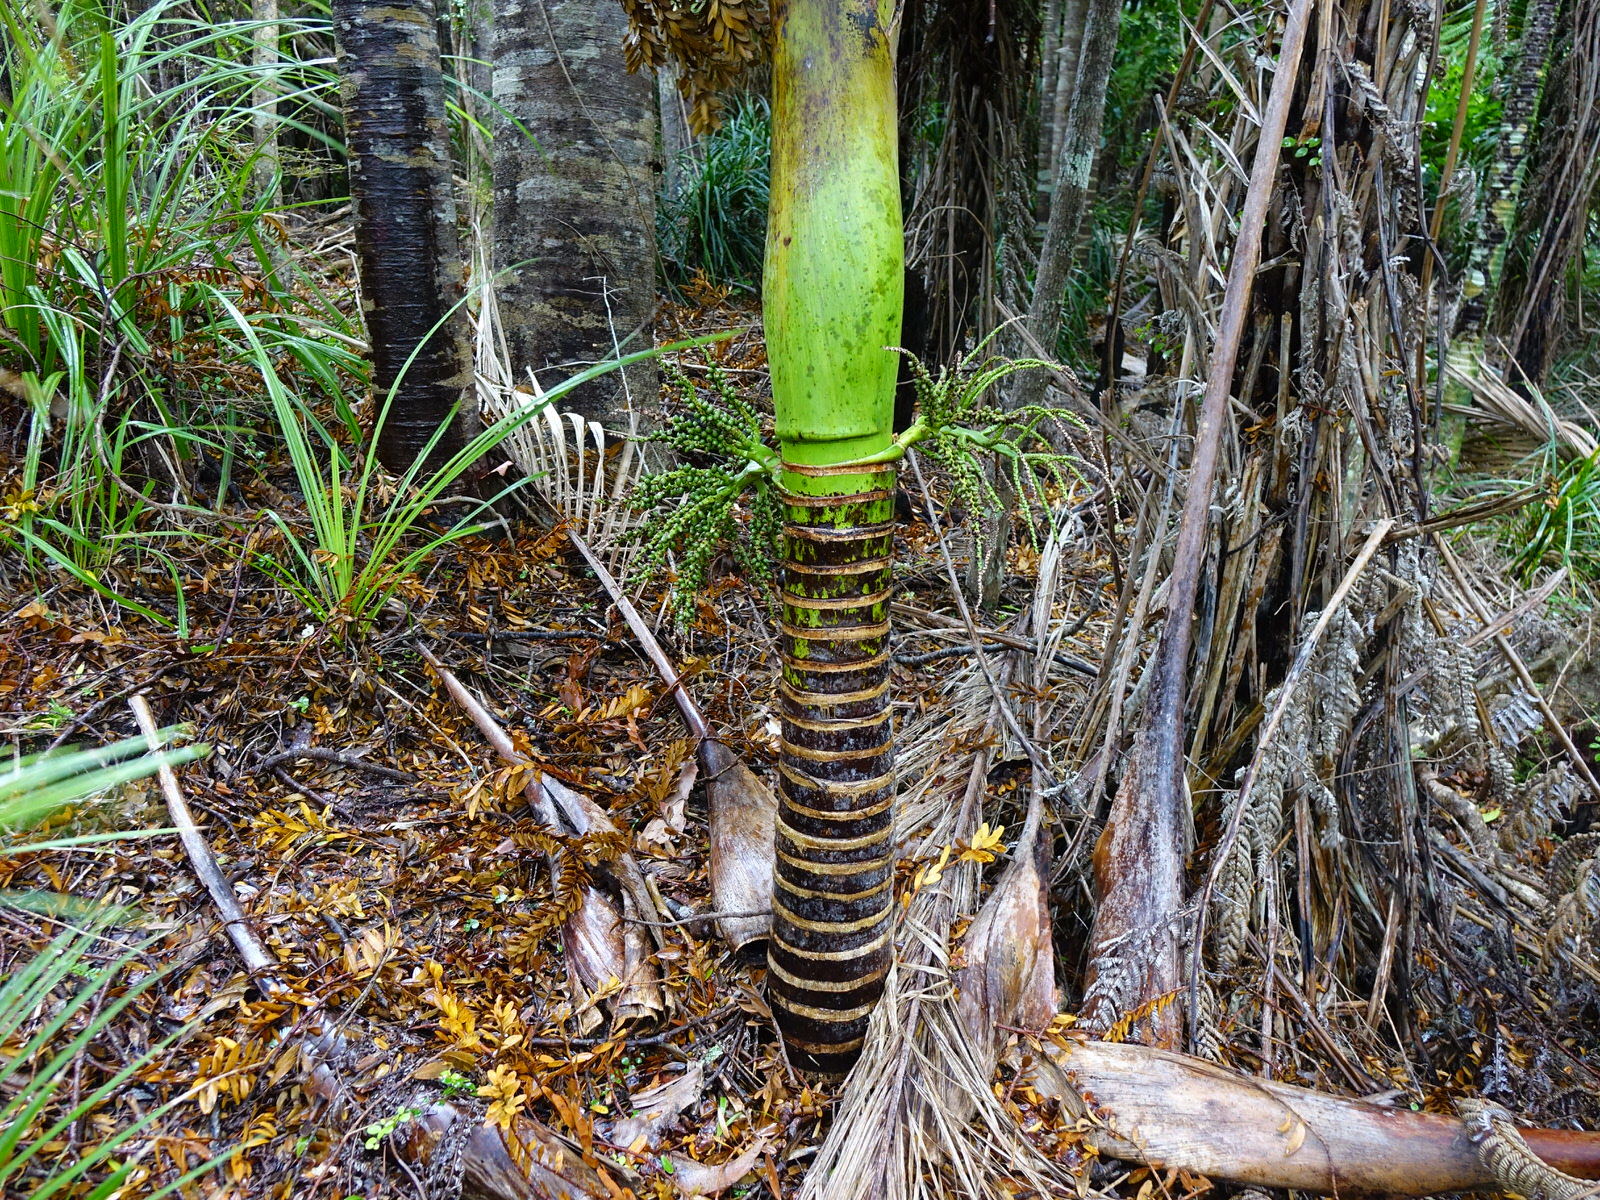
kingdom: Plantae
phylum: Tracheophyta
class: Liliopsida
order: Arecales
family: Arecaceae
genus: Rhopalostylis
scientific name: Rhopalostylis sapida
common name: Feather-duster palm
